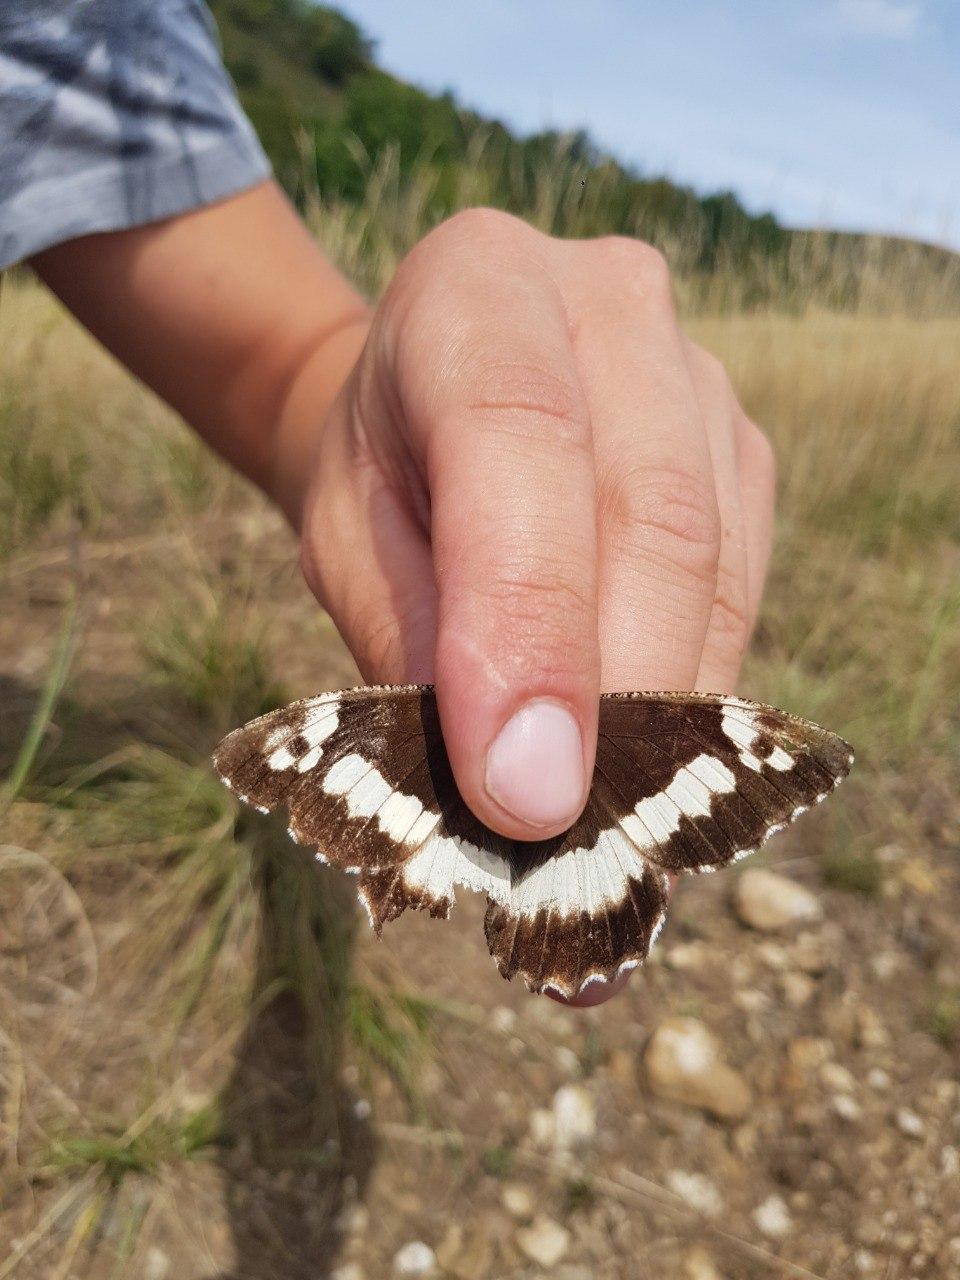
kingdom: Animalia
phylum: Arthropoda
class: Insecta
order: Lepidoptera
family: Lycaenidae
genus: Loweia
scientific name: Loweia tityrus
